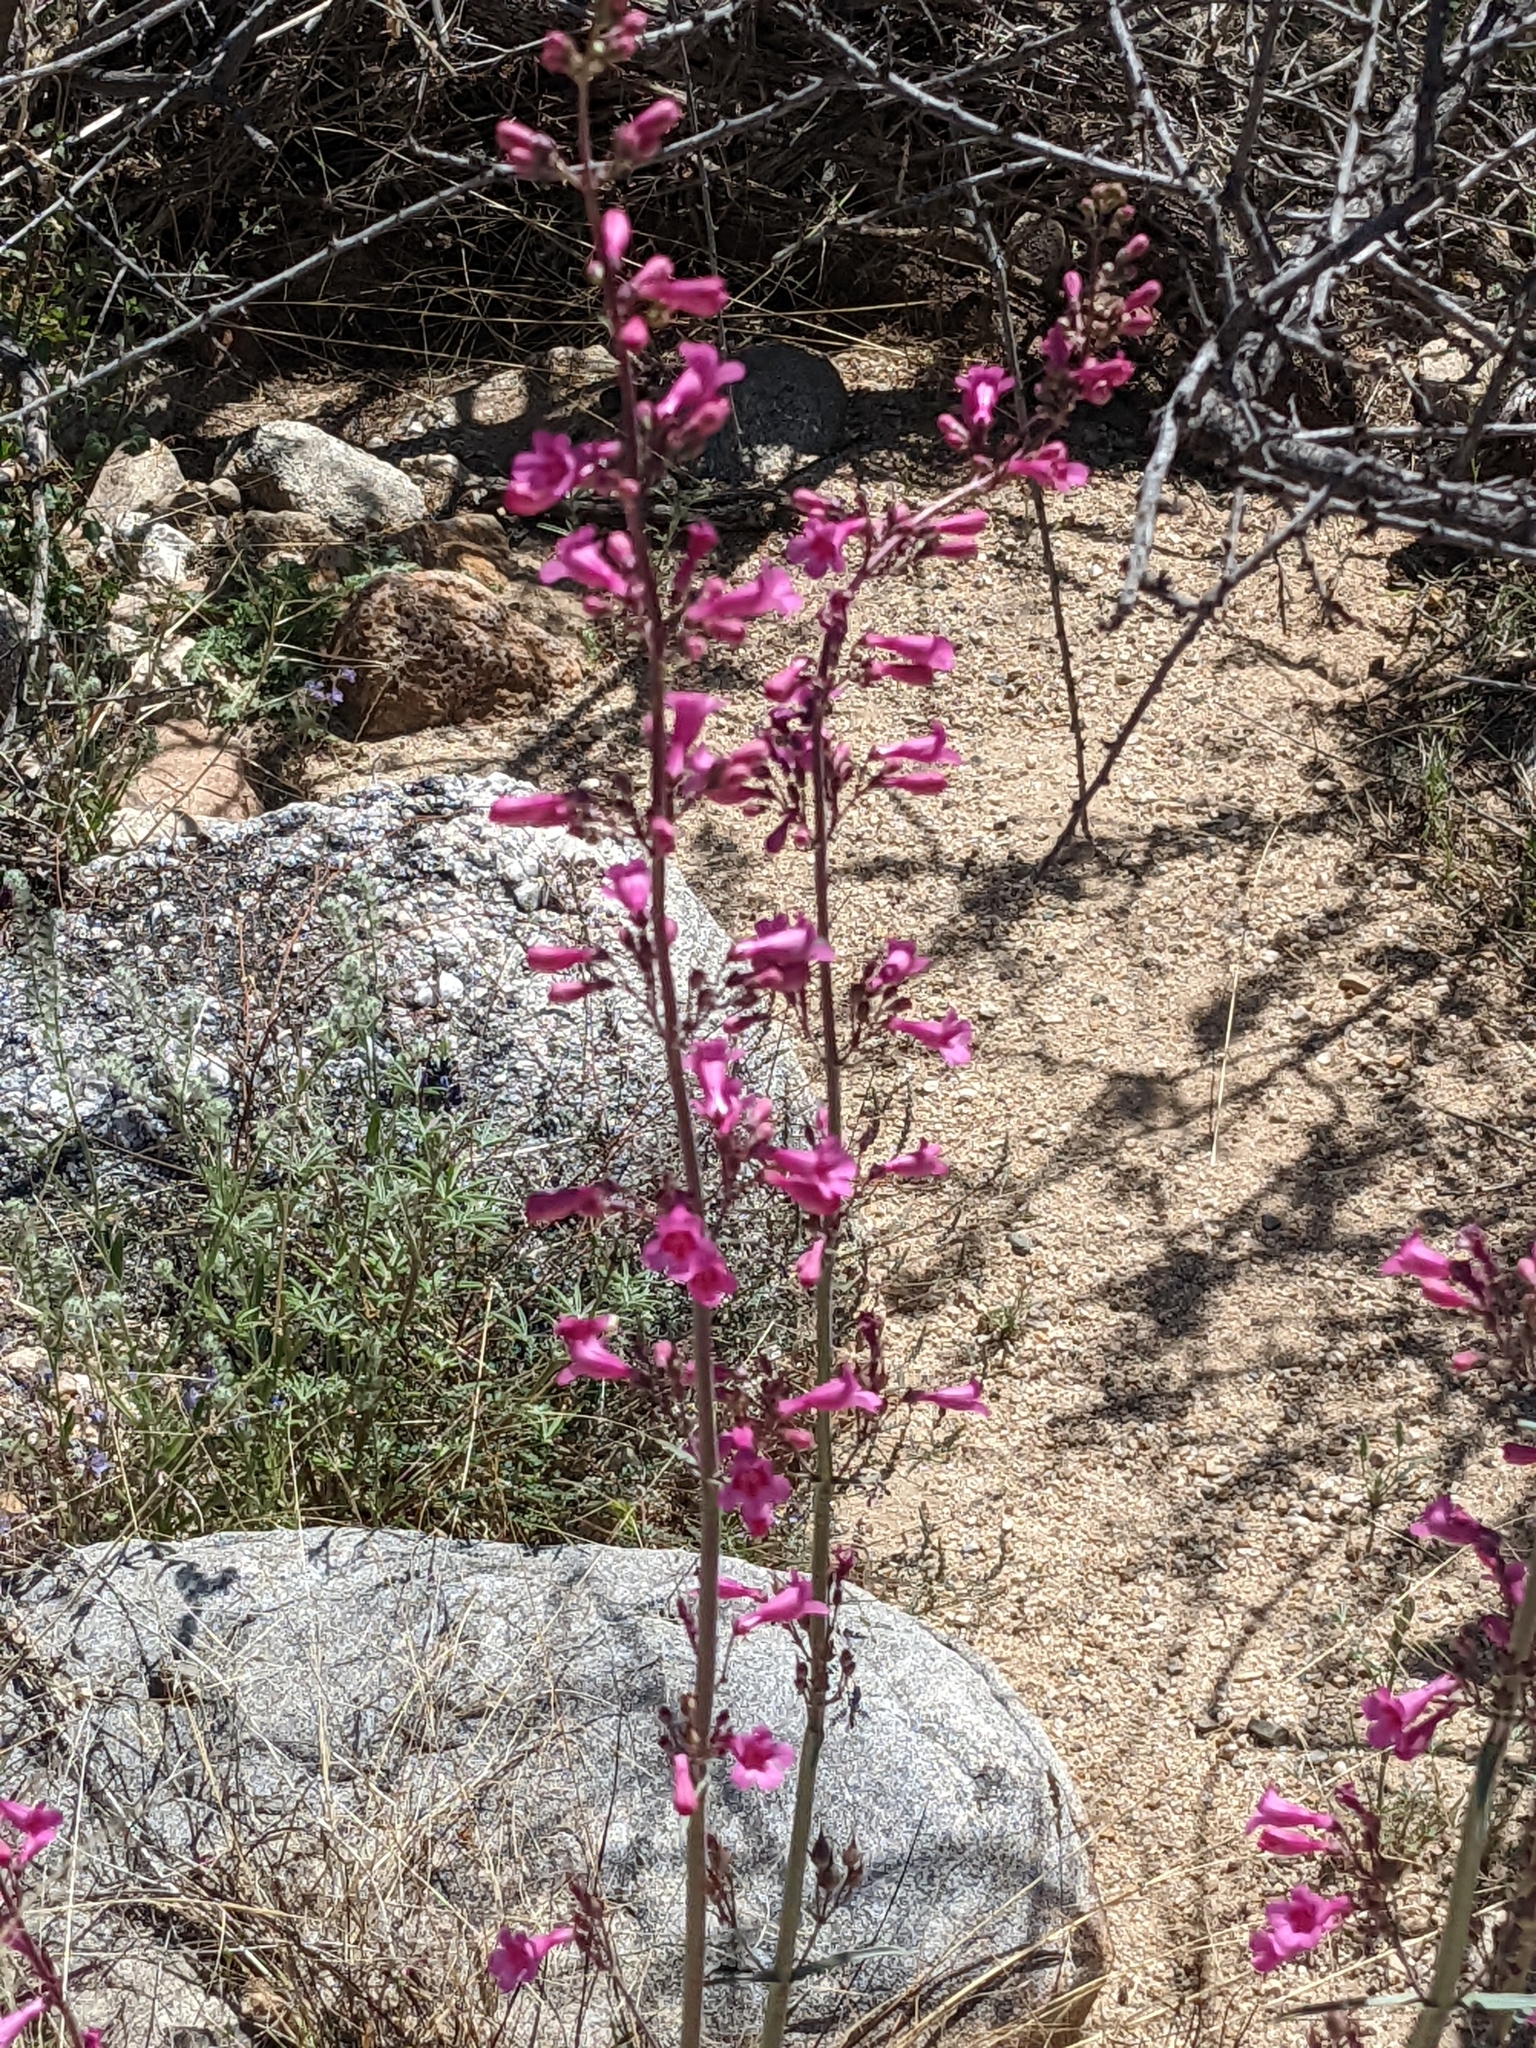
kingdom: Plantae
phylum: Tracheophyta
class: Magnoliopsida
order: Lamiales
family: Plantaginaceae
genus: Penstemon
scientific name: Penstemon parryi
